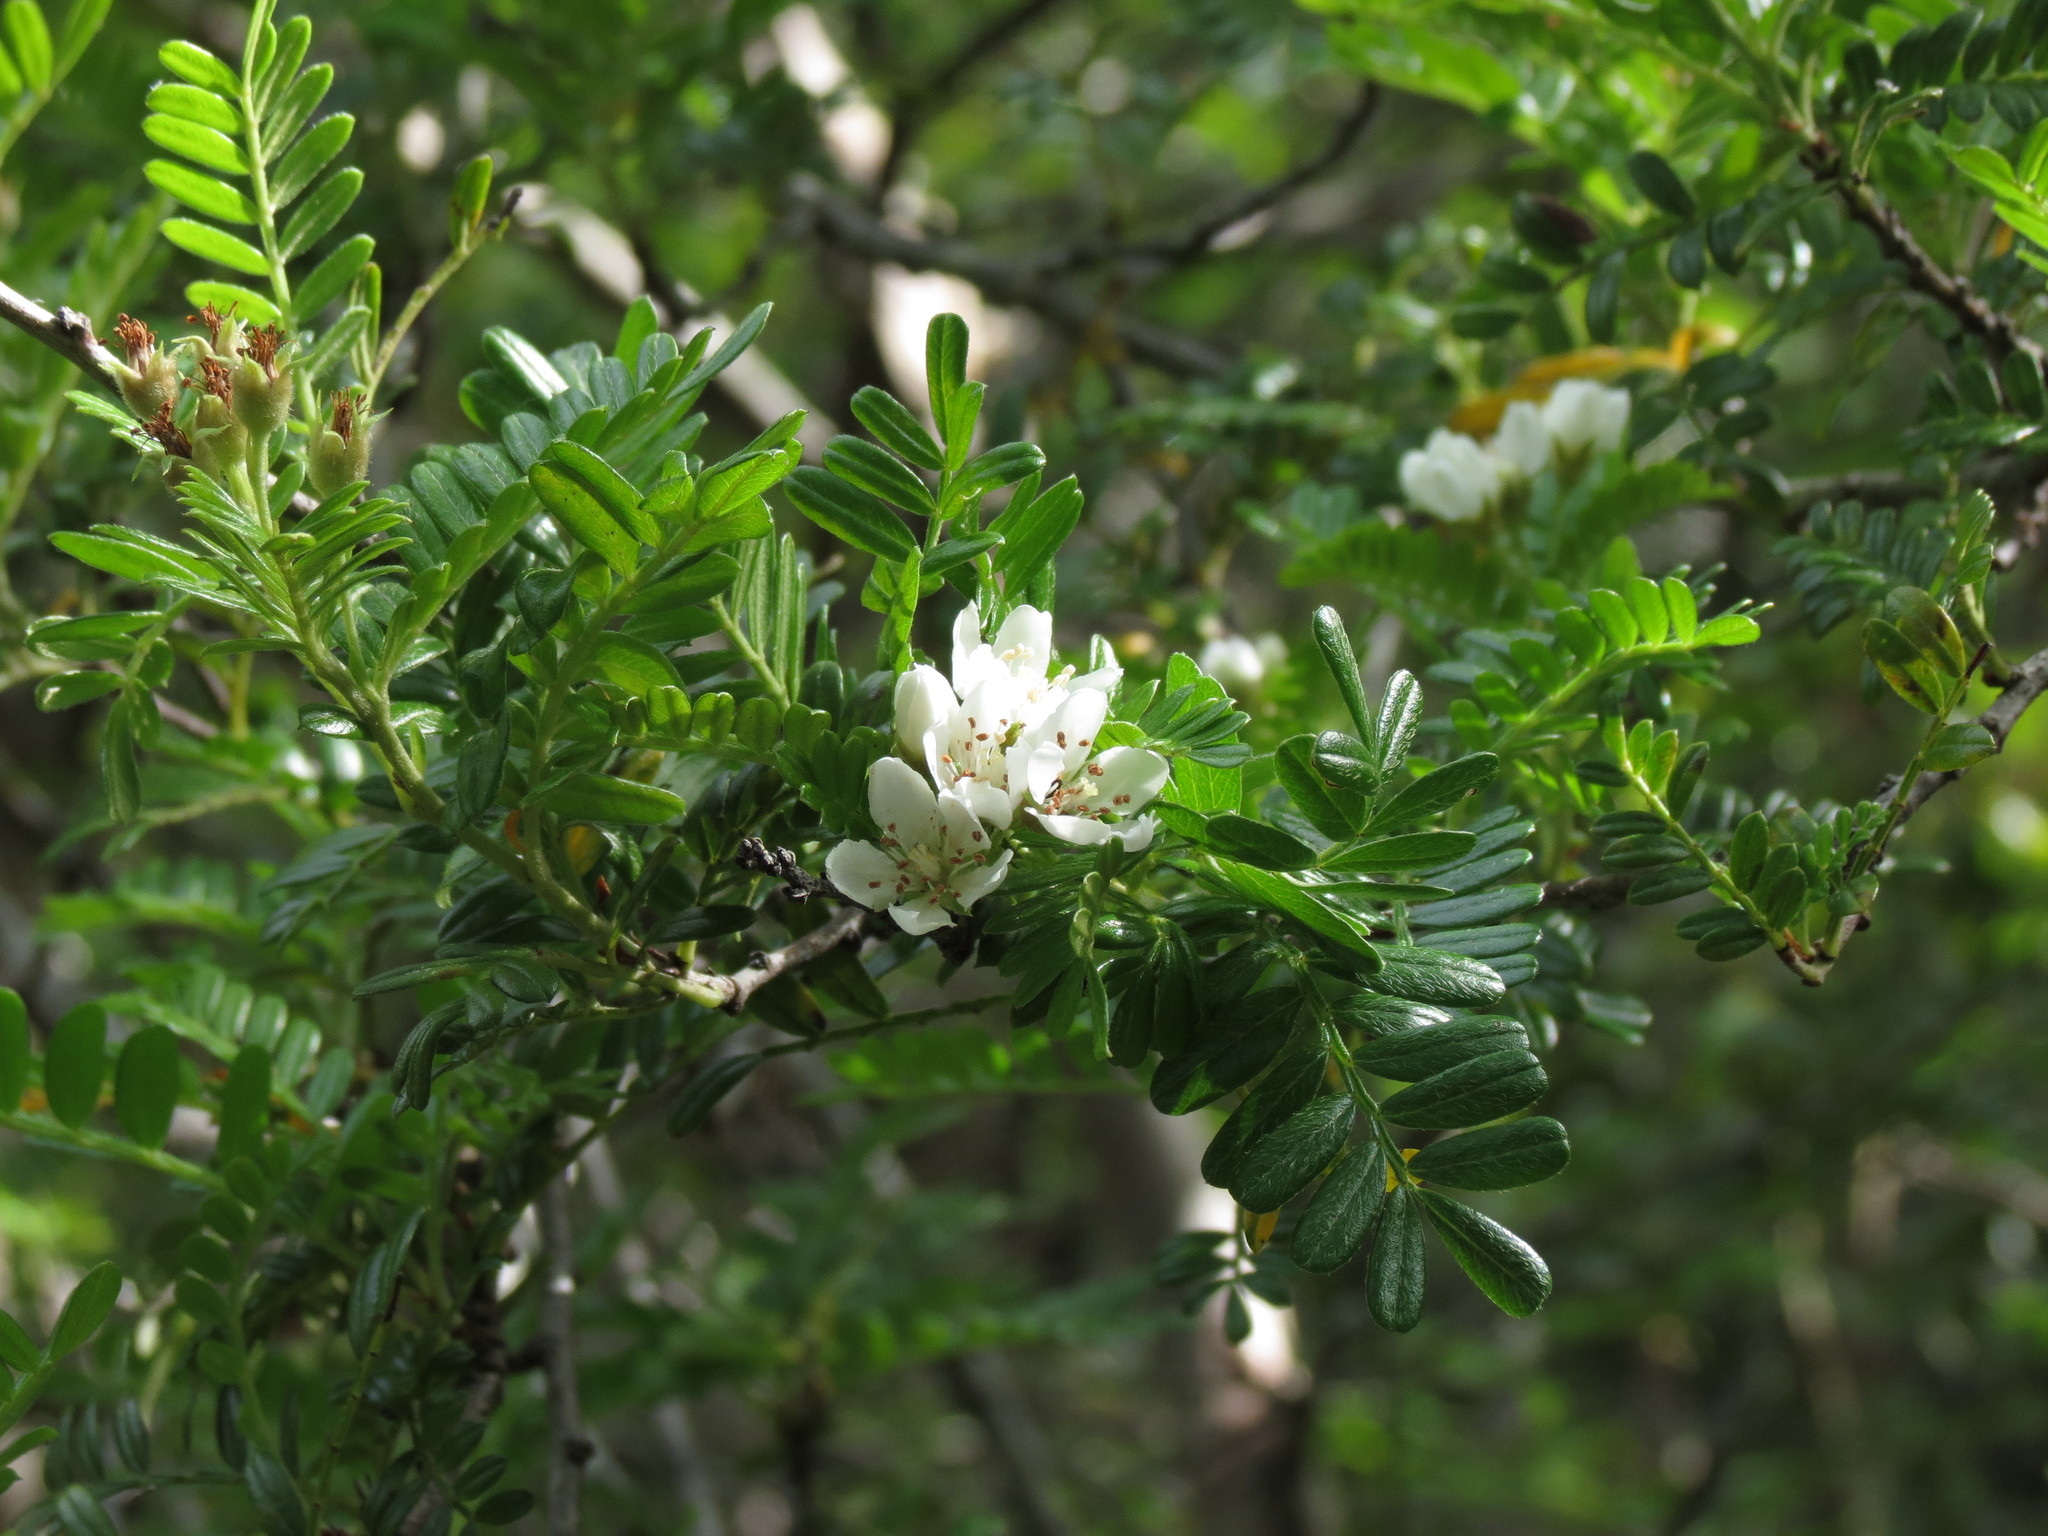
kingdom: Plantae
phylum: Tracheophyta
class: Magnoliopsida
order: Rosales
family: Rosaceae
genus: Osteomeles
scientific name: Osteomeles anthyllidifolia
